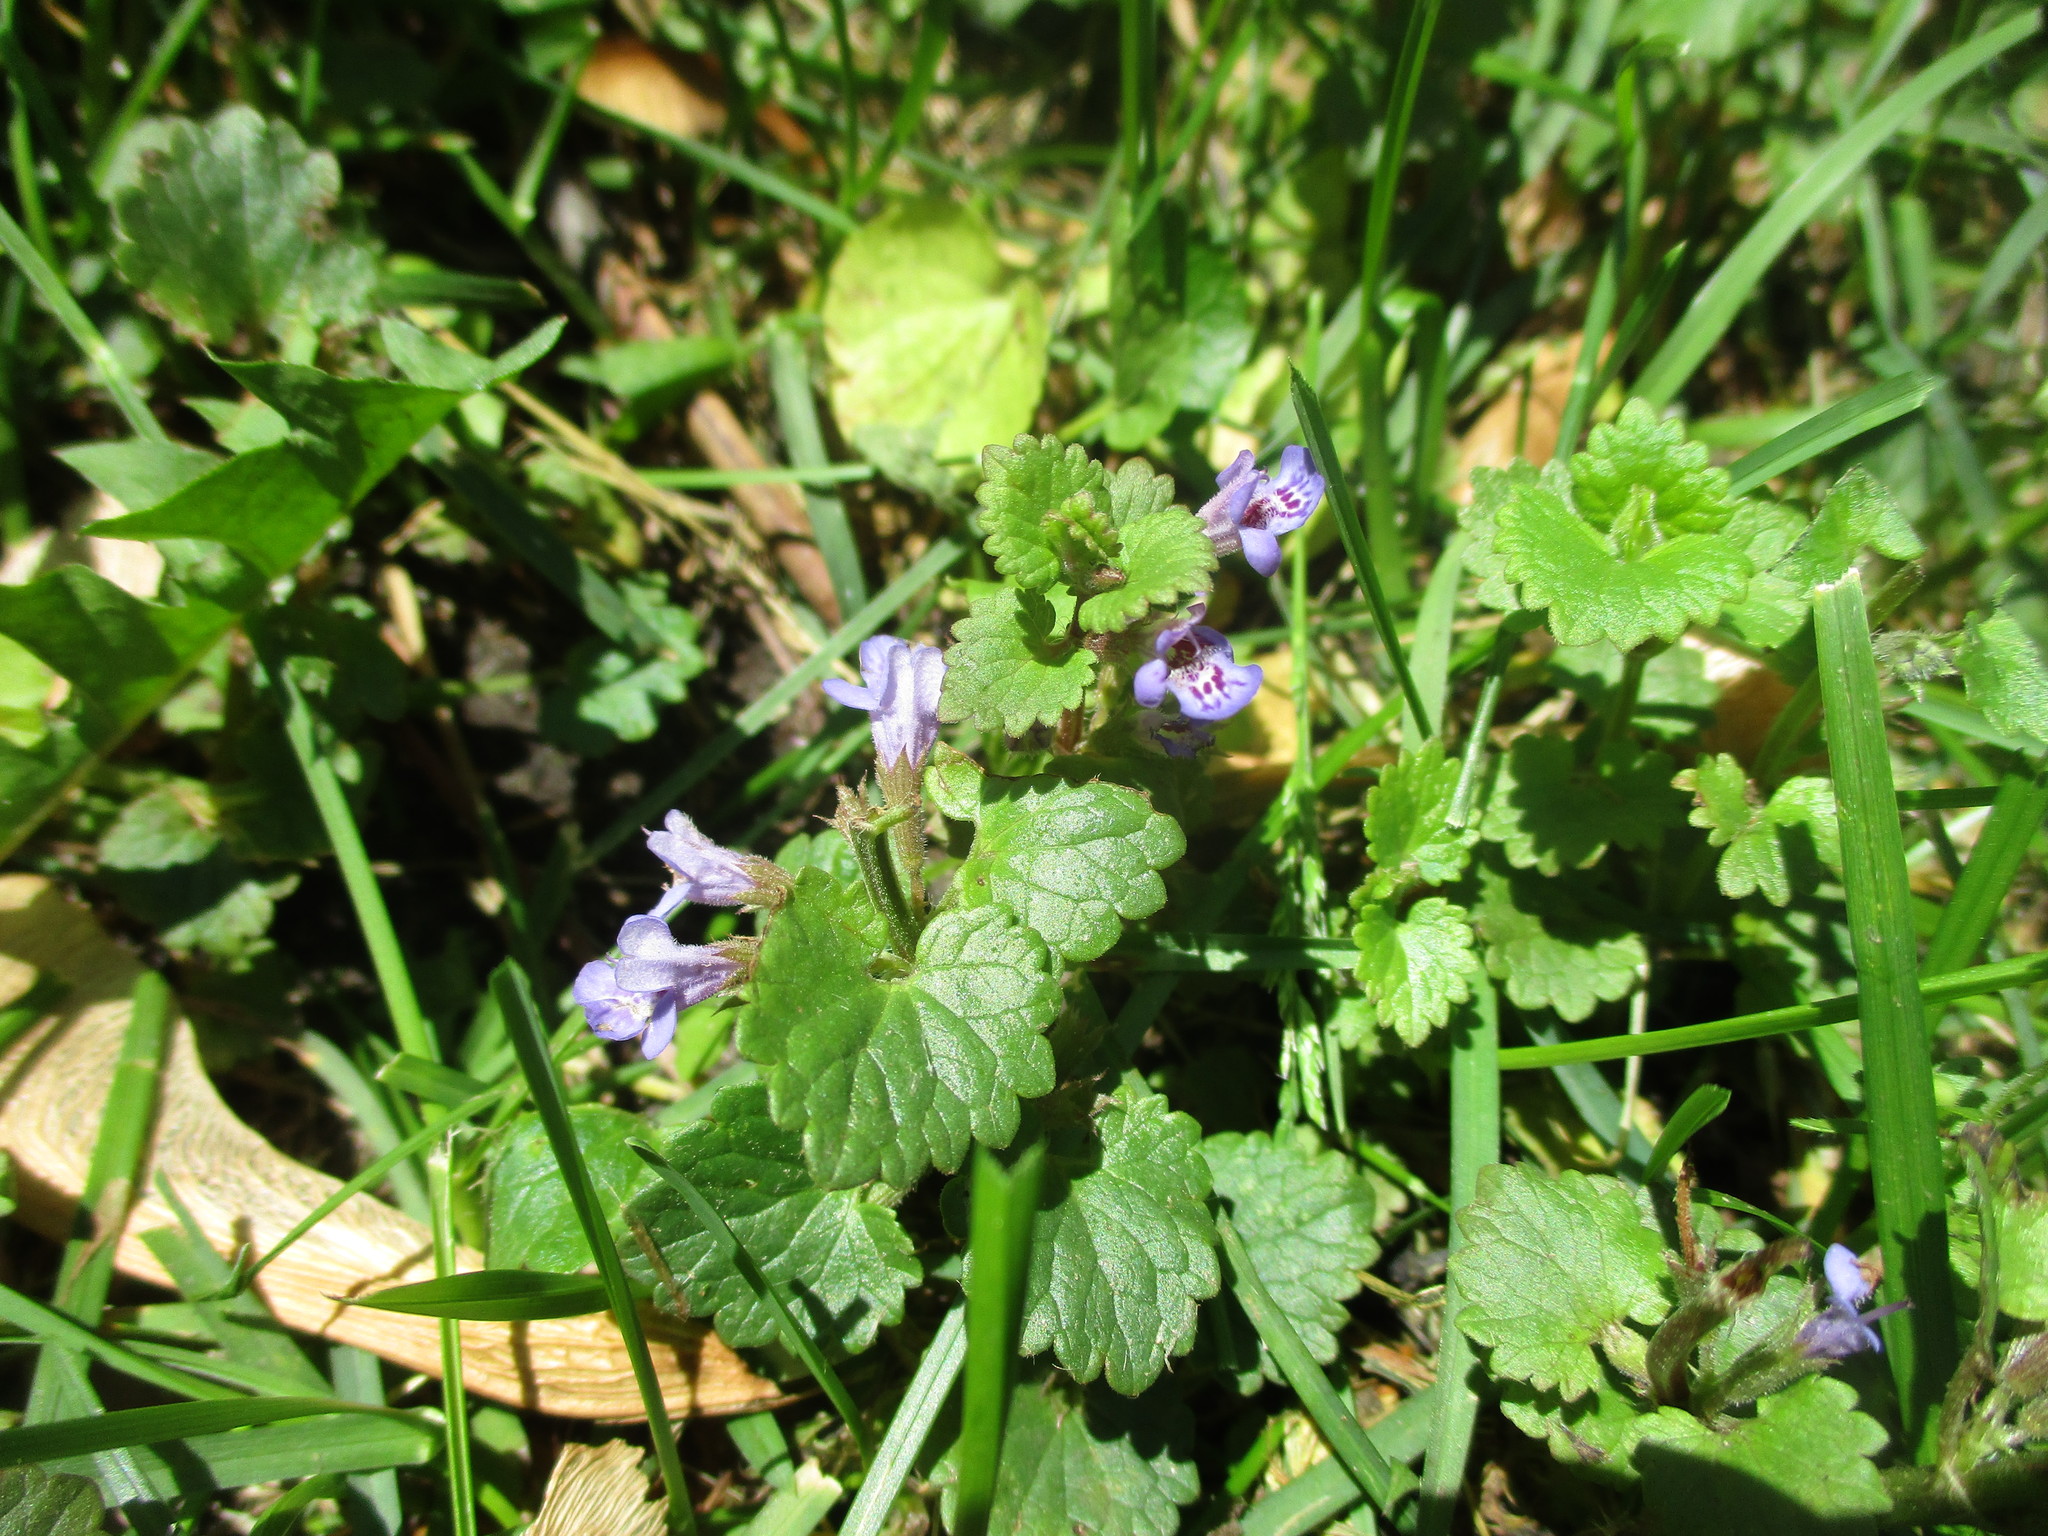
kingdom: Plantae
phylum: Tracheophyta
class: Magnoliopsida
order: Lamiales
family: Lamiaceae
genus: Glechoma
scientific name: Glechoma hederacea
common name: Ground ivy
